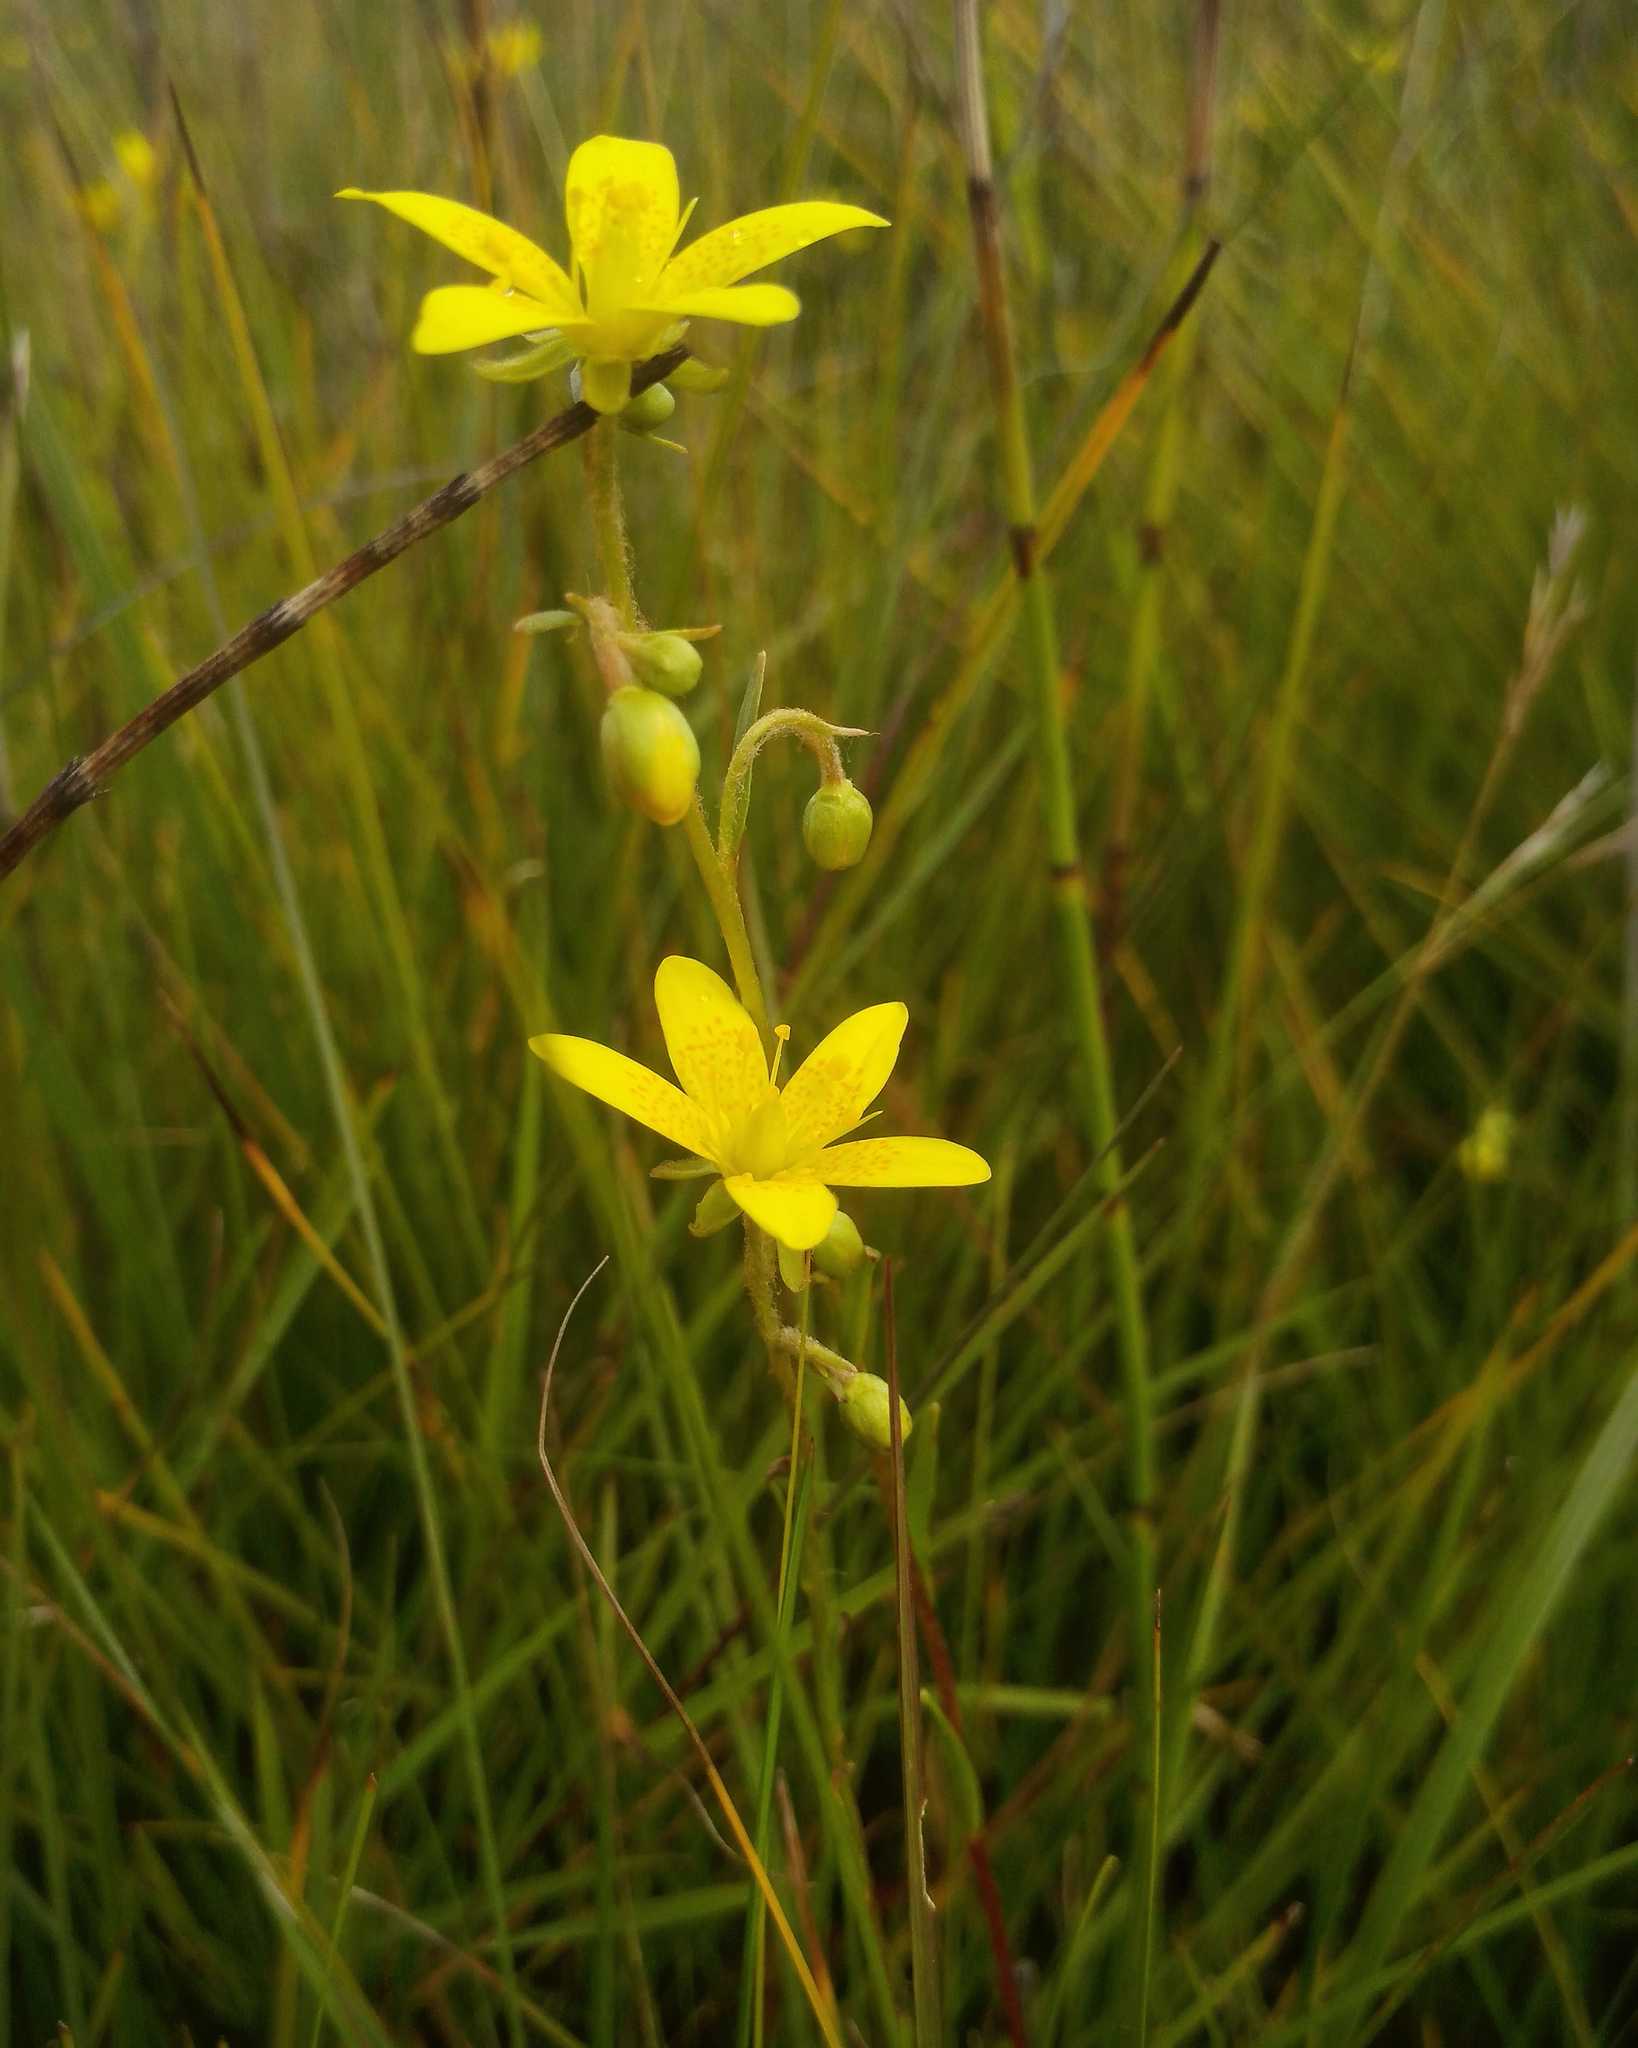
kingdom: Plantae
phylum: Tracheophyta
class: Magnoliopsida
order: Saxifragales
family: Saxifragaceae
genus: Saxifraga
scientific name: Saxifraga hirculus
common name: Yellow marsh saxifrage
